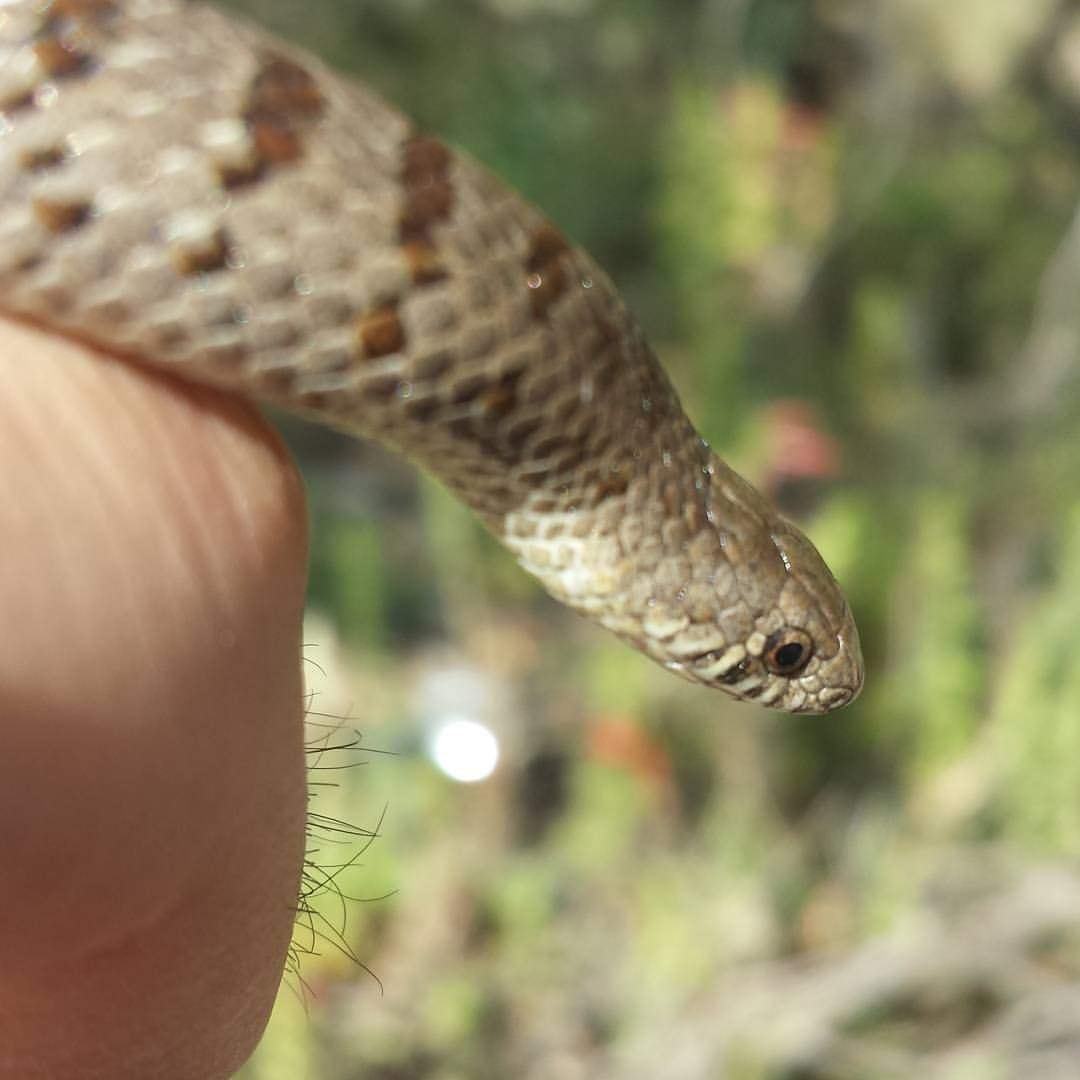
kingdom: Animalia
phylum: Chordata
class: Squamata
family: Colubridae
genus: Conopsis
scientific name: Conopsis nasus
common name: Largenose earth snake
